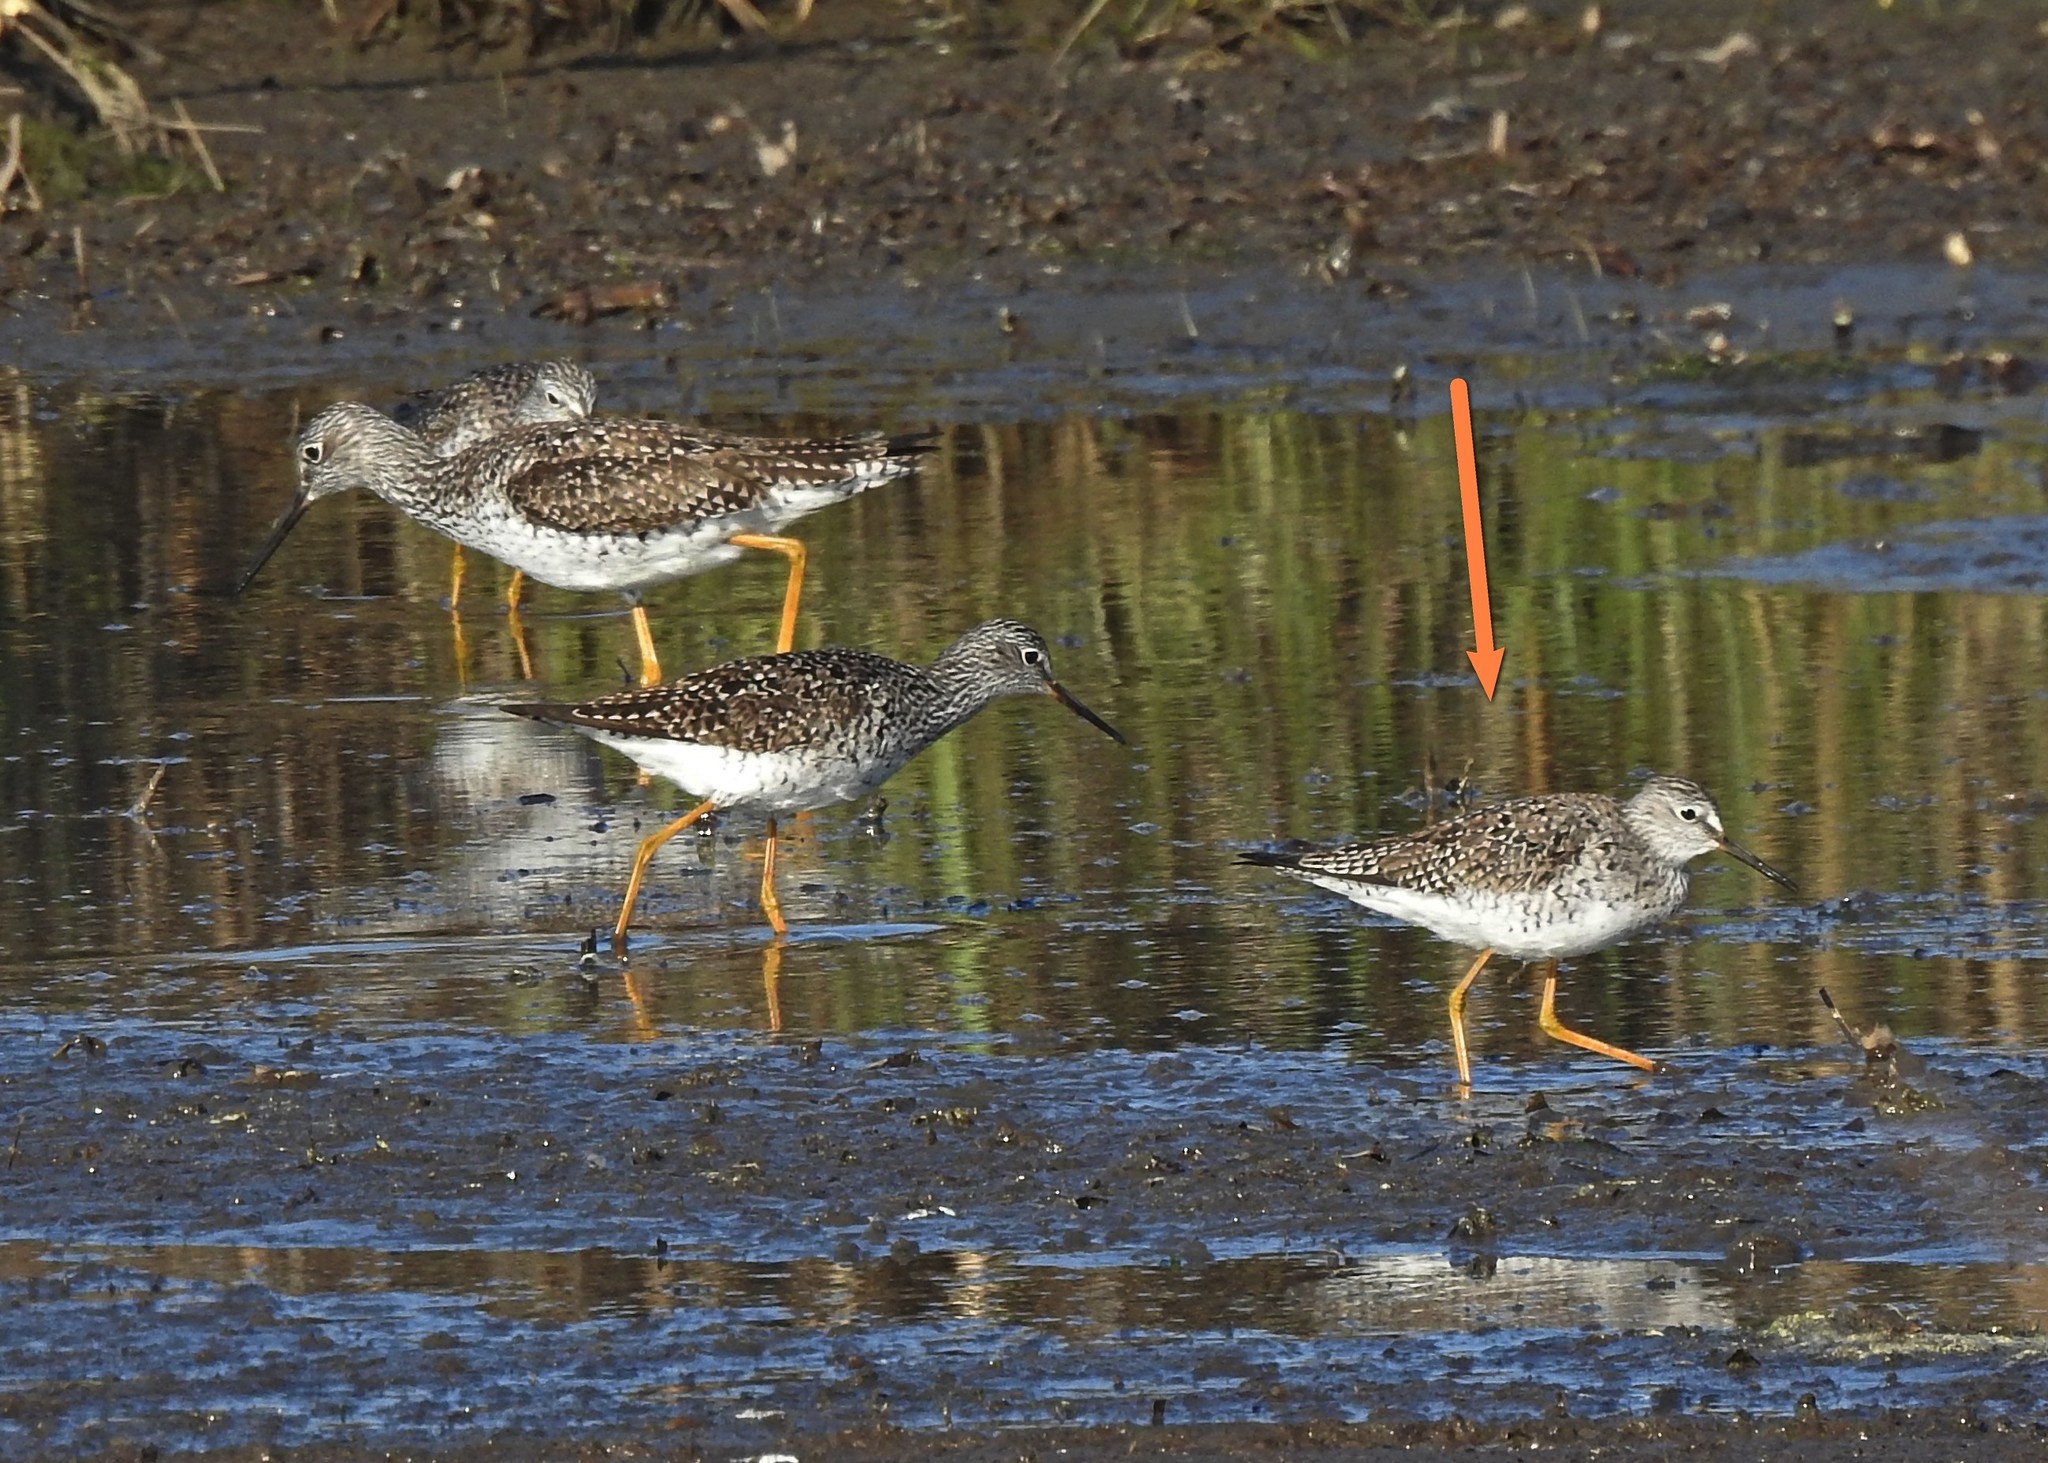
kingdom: Animalia
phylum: Chordata
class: Aves
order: Charadriiformes
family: Scolopacidae
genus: Tringa
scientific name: Tringa flavipes
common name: Lesser yellowlegs
